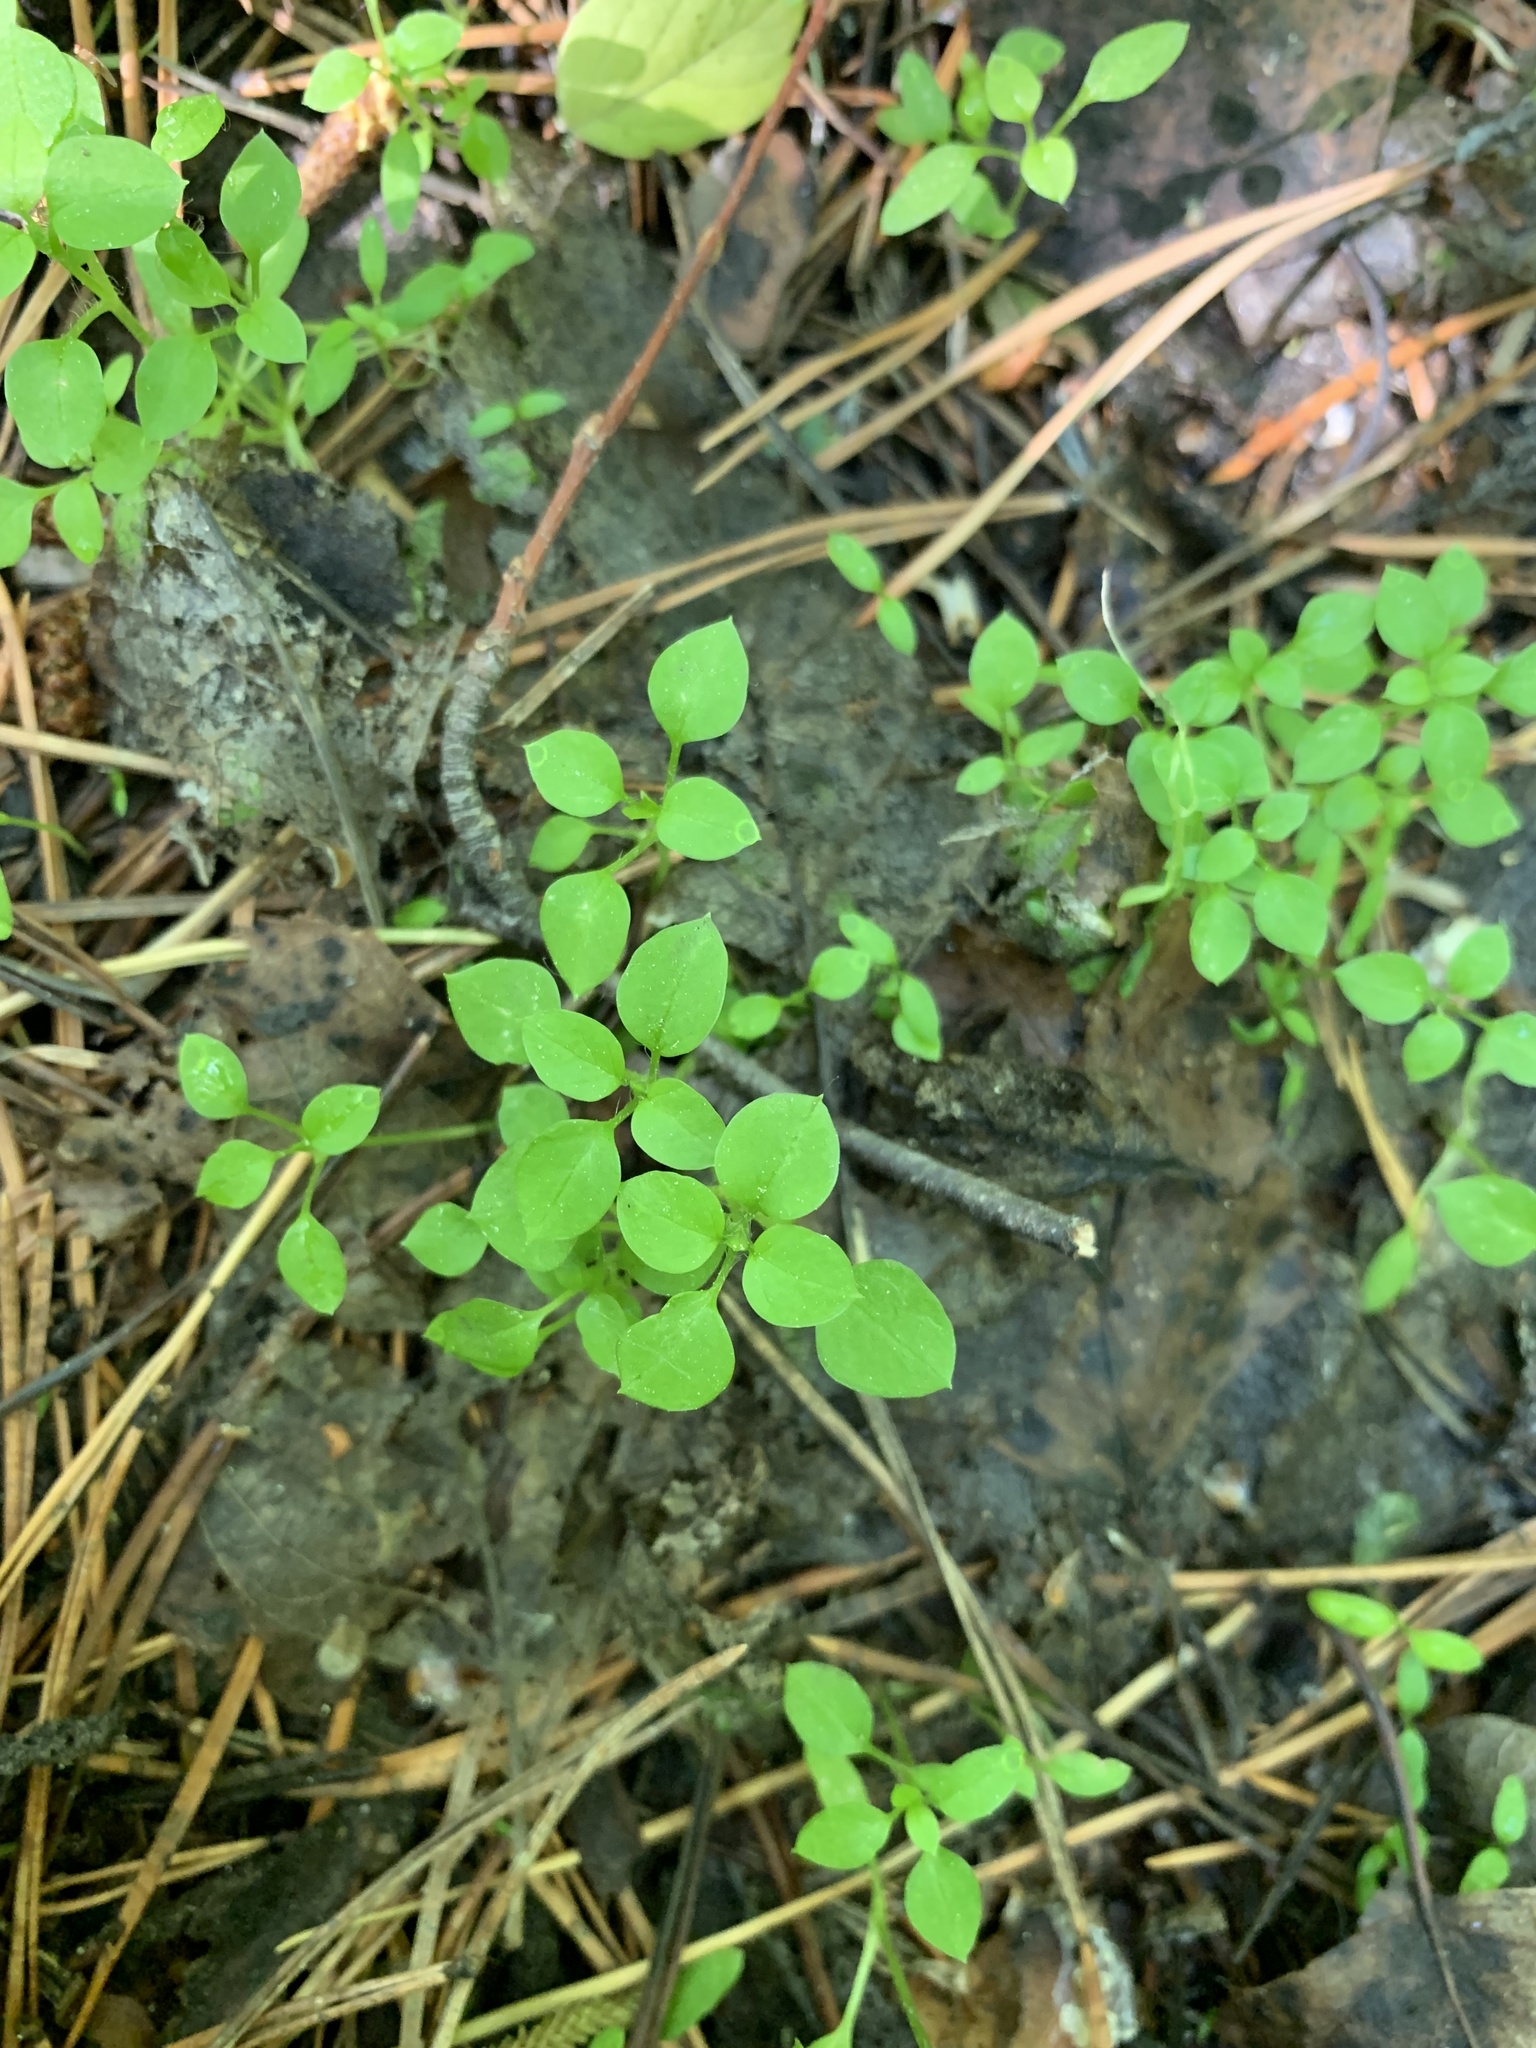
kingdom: Plantae
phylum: Tracheophyta
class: Magnoliopsida
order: Caryophyllales
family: Caryophyllaceae
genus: Stellaria
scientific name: Stellaria media
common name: Common chickweed
